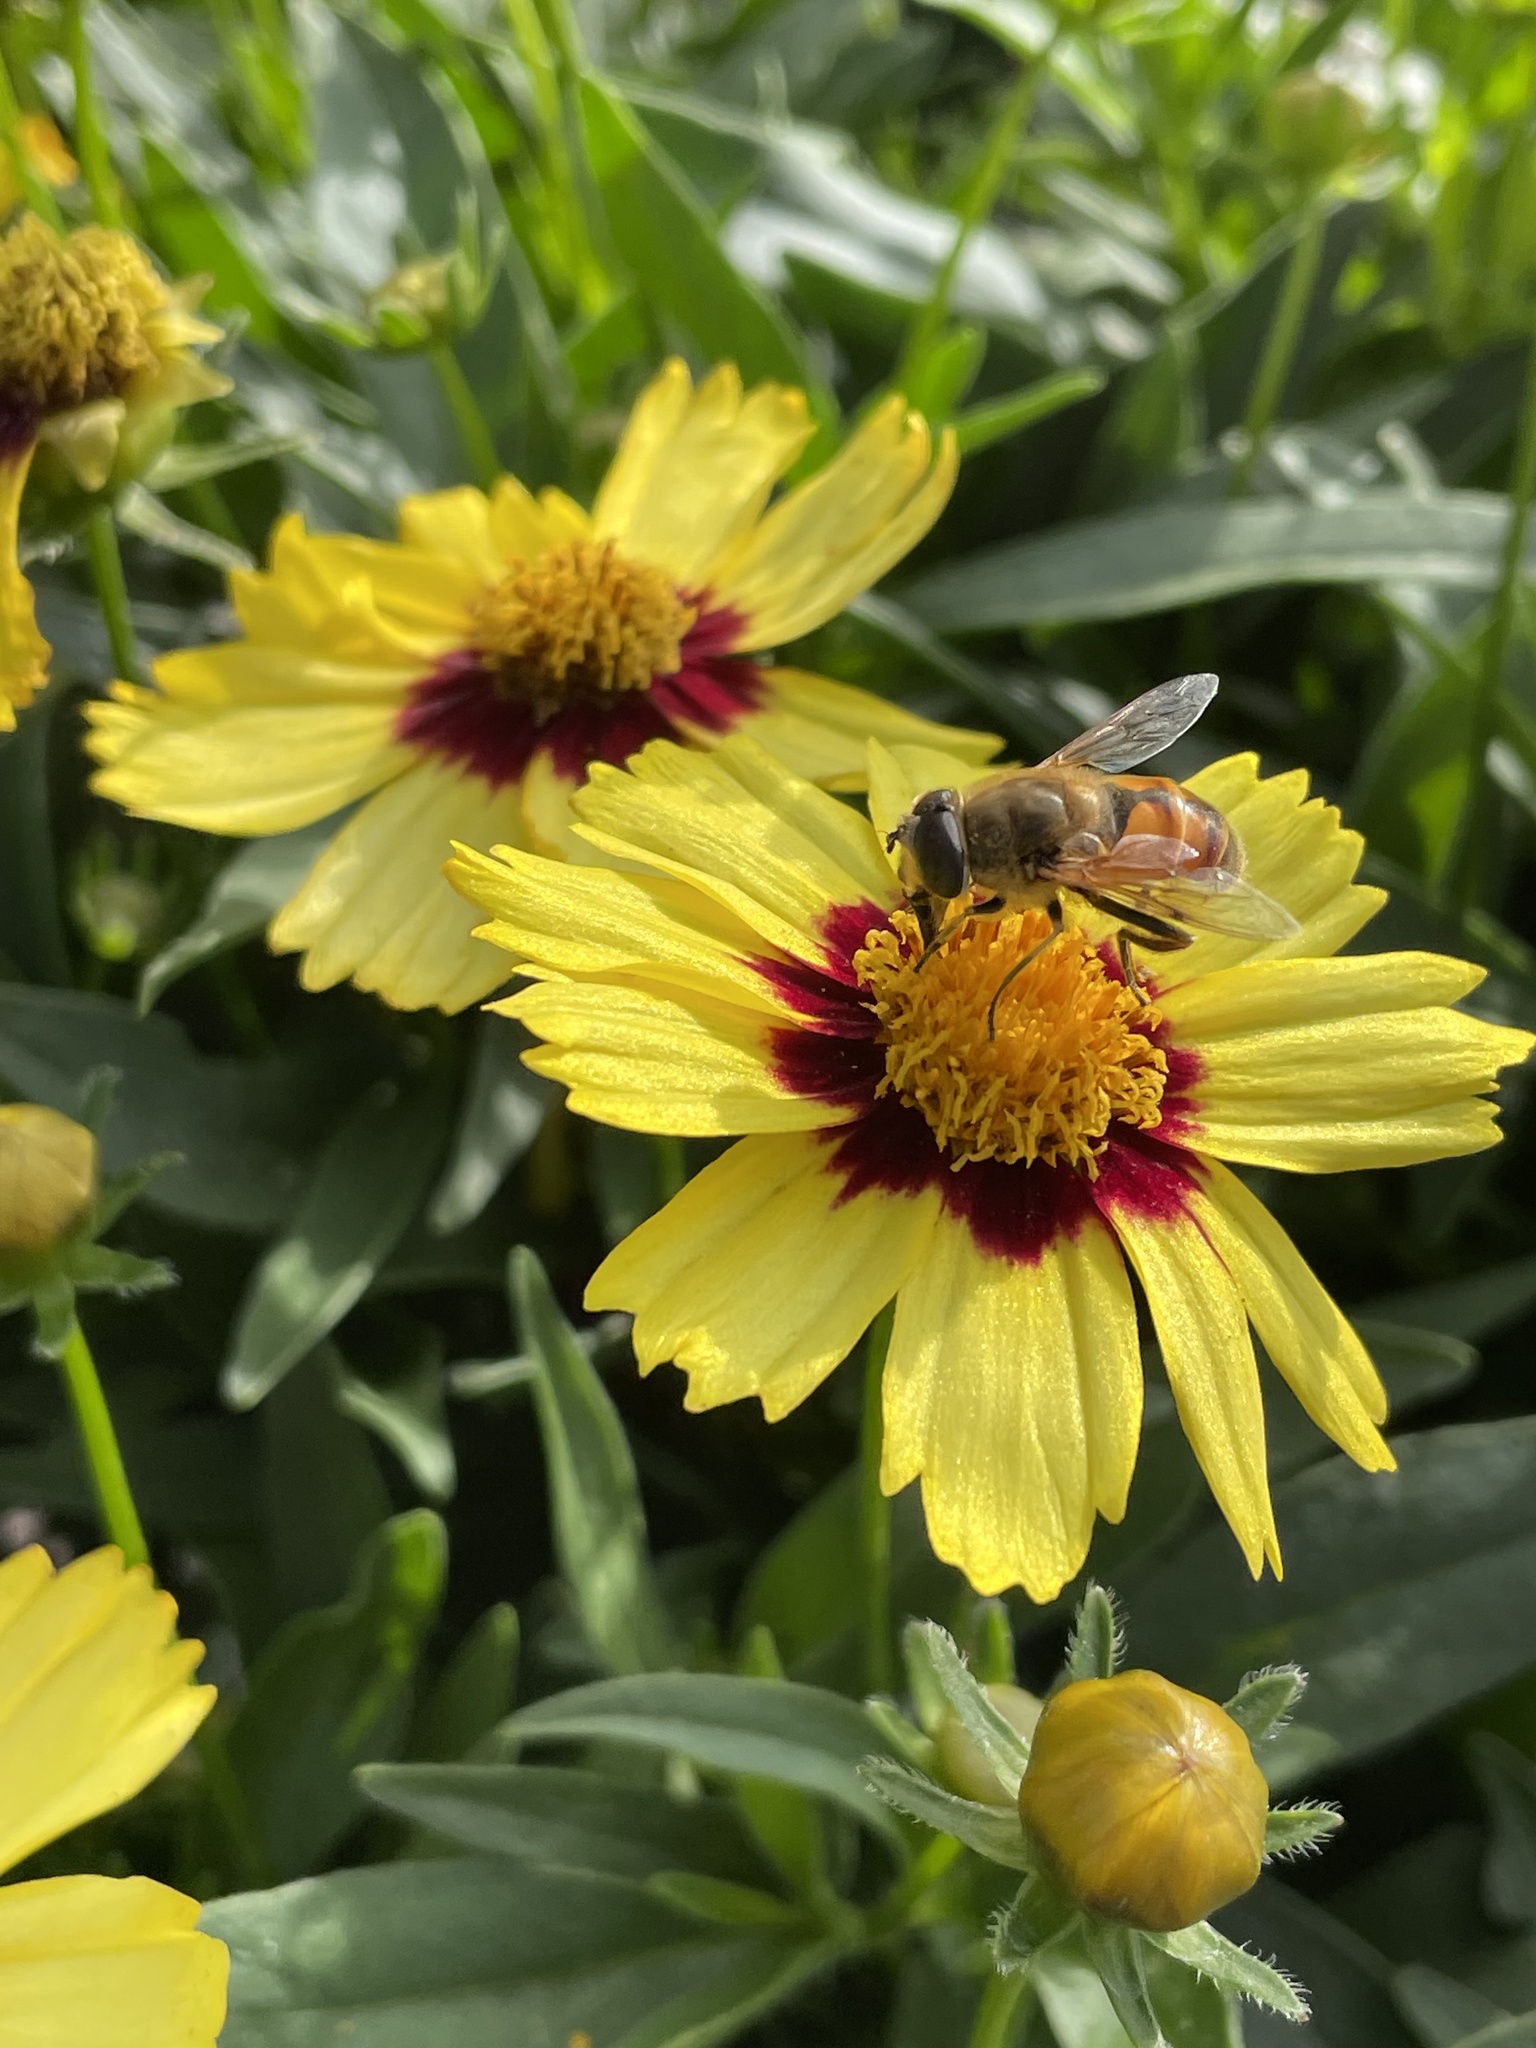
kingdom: Animalia
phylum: Arthropoda
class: Insecta
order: Diptera
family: Syrphidae
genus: Eristalis
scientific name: Eristalis tenax
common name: Drone fly
